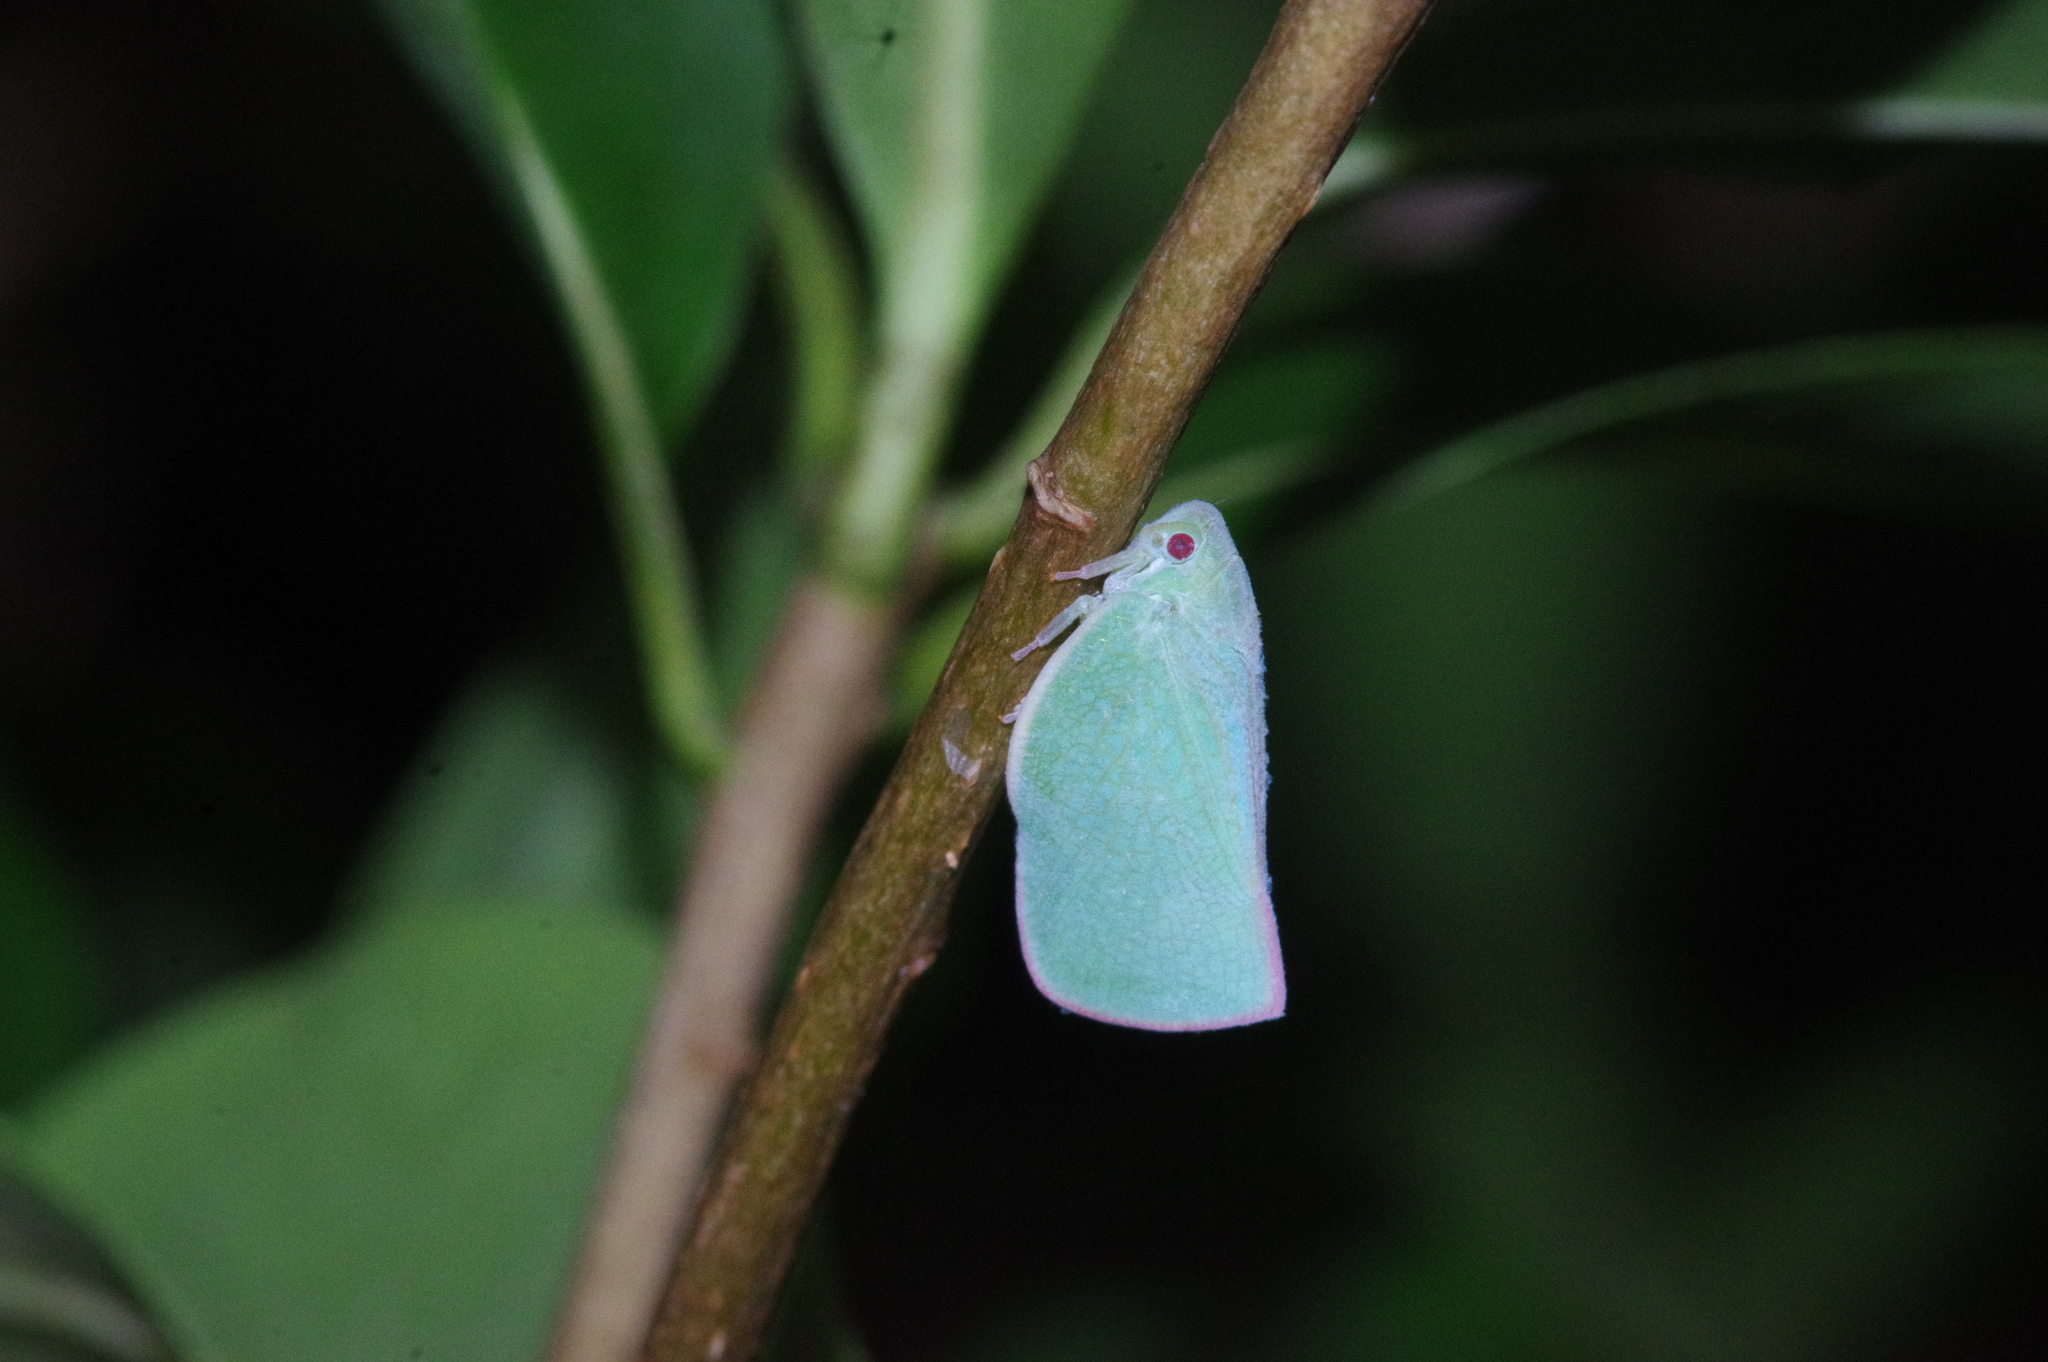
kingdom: Animalia
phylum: Arthropoda
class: Insecta
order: Hemiptera
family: Flatidae
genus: Geisha
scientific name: Geisha distinctissima
